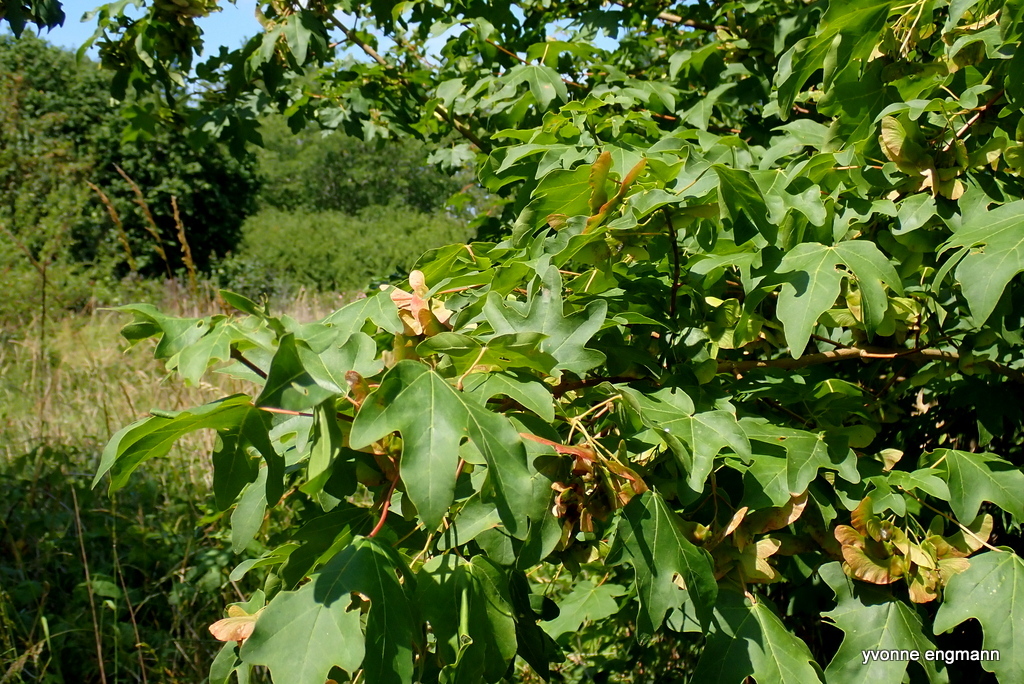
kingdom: Plantae
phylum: Tracheophyta
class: Magnoliopsida
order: Sapindales
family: Sapindaceae
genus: Acer
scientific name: Acer campestre
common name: Field maple
